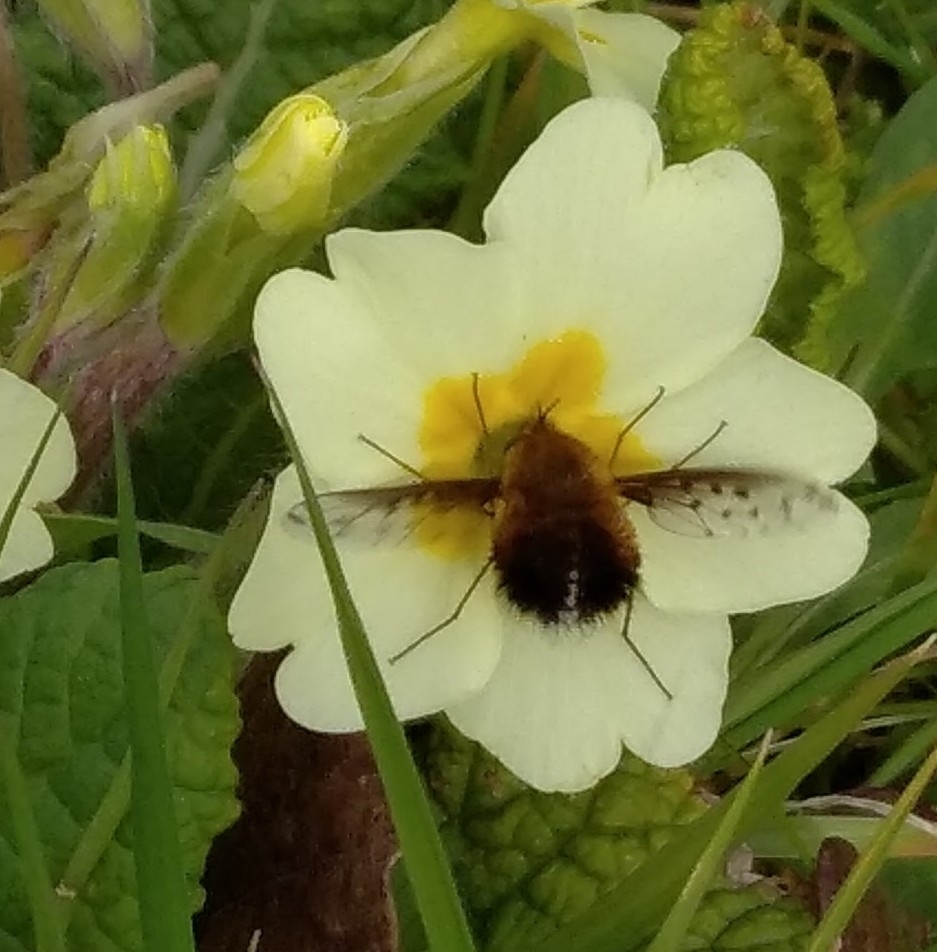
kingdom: Animalia
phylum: Arthropoda
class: Insecta
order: Diptera
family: Bombyliidae
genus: Bombylius
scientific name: Bombylius discolor
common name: Dotted bee-fly
